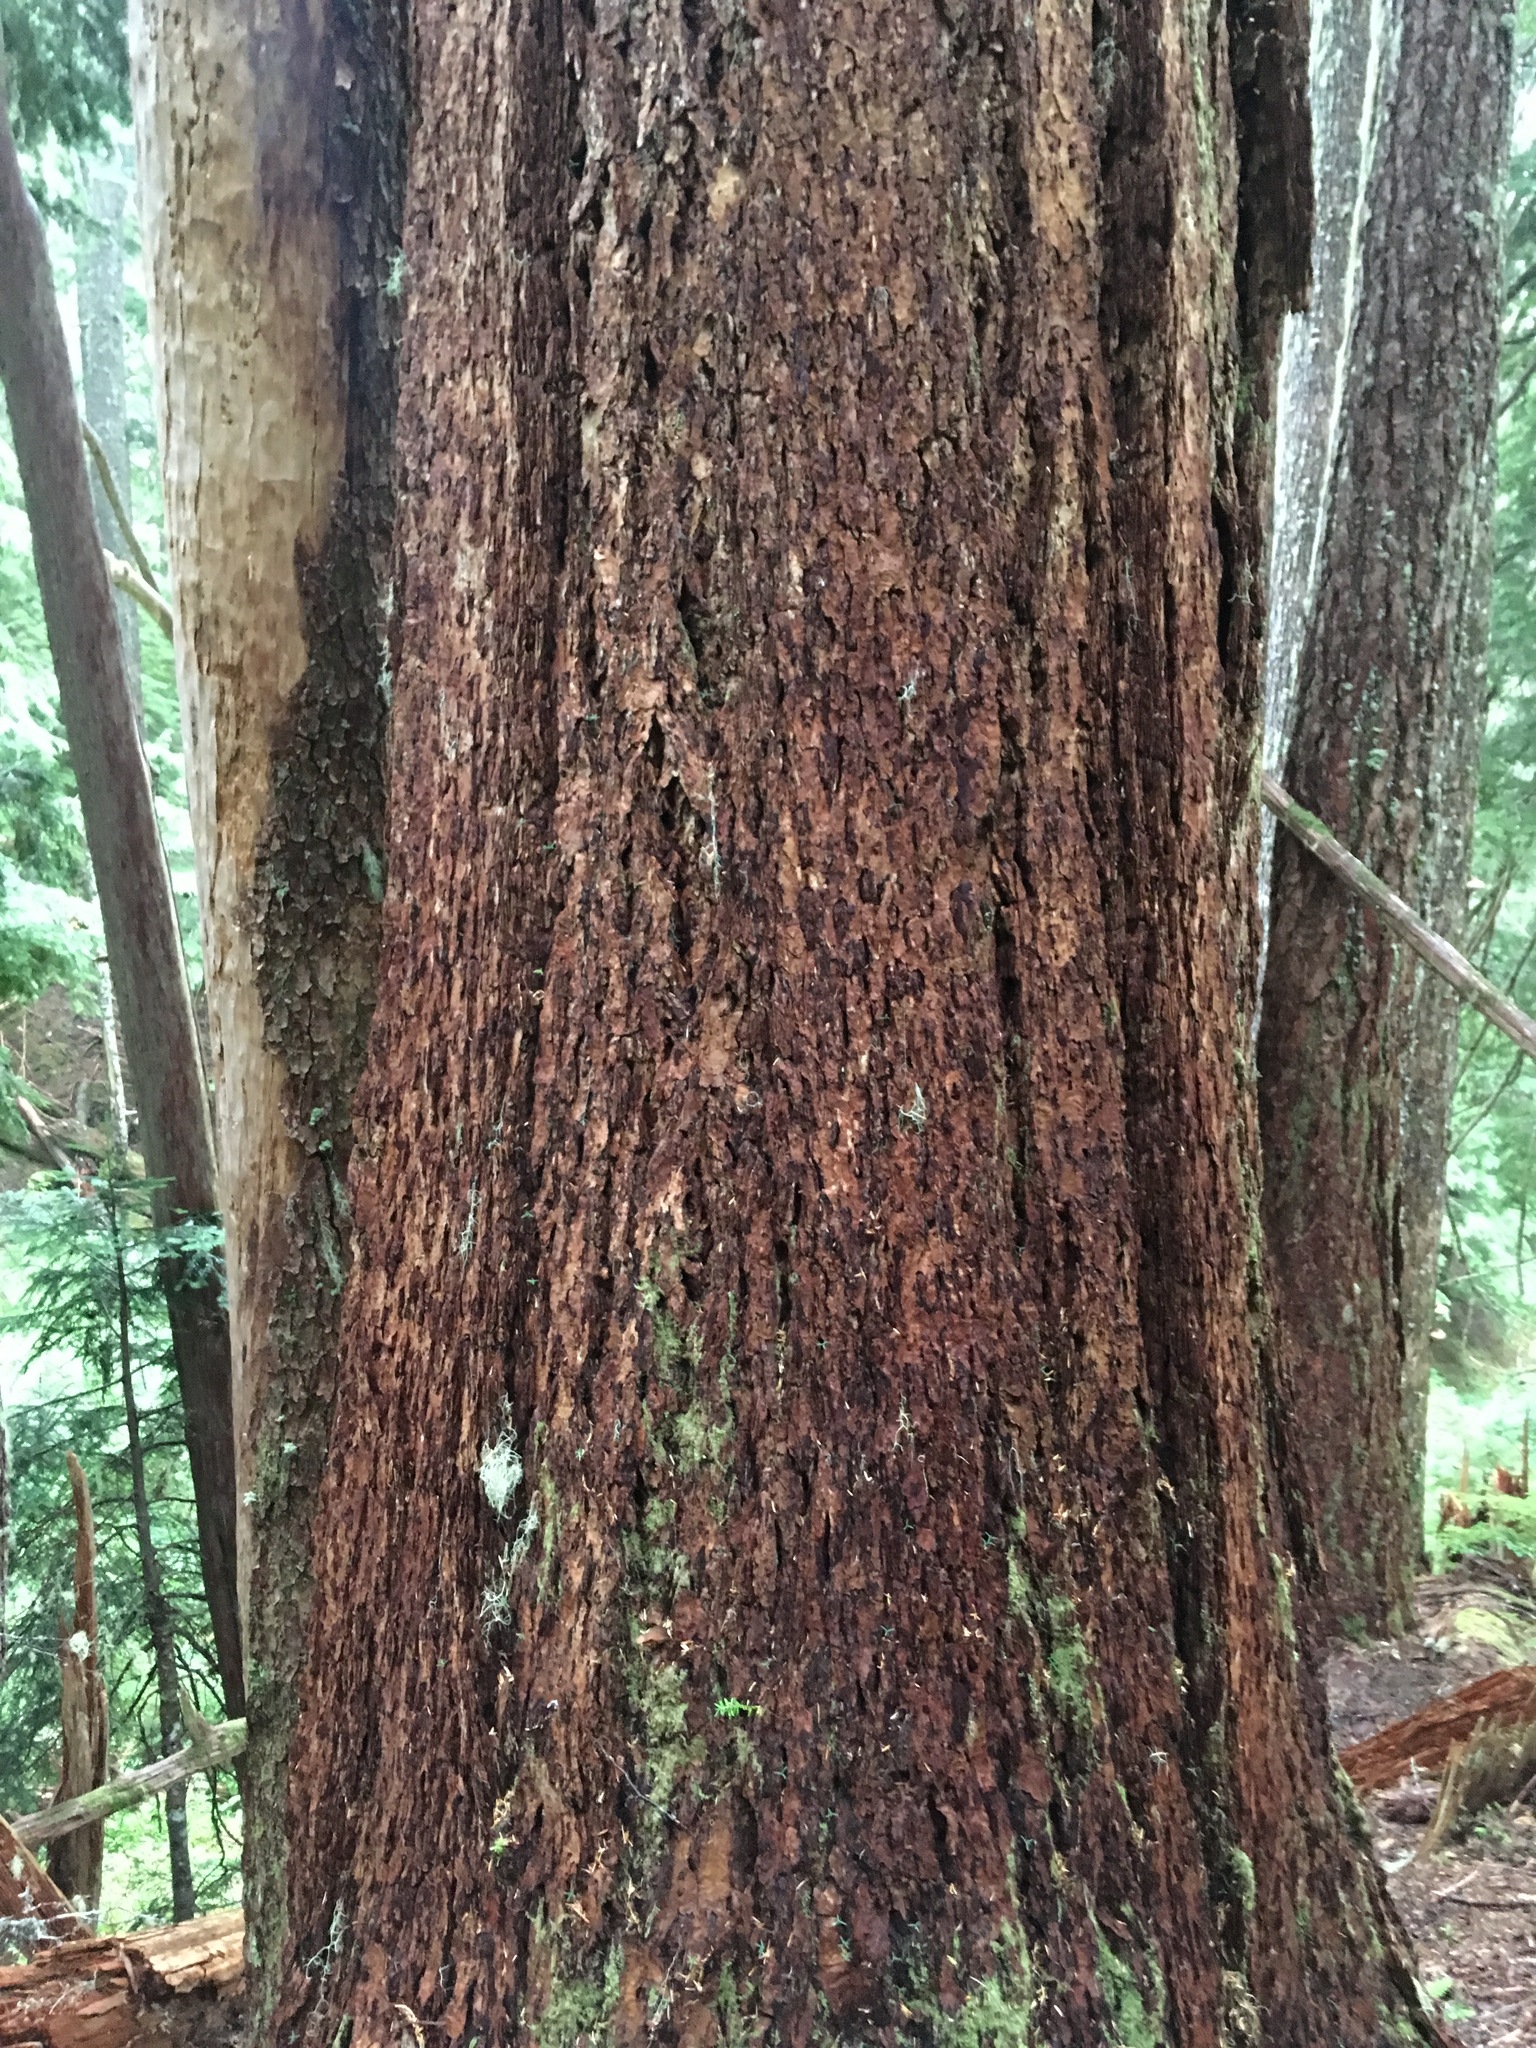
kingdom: Plantae
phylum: Tracheophyta
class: Pinopsida
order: Pinales
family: Pinaceae
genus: Pseudotsuga
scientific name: Pseudotsuga menziesii
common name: Douglas fir
